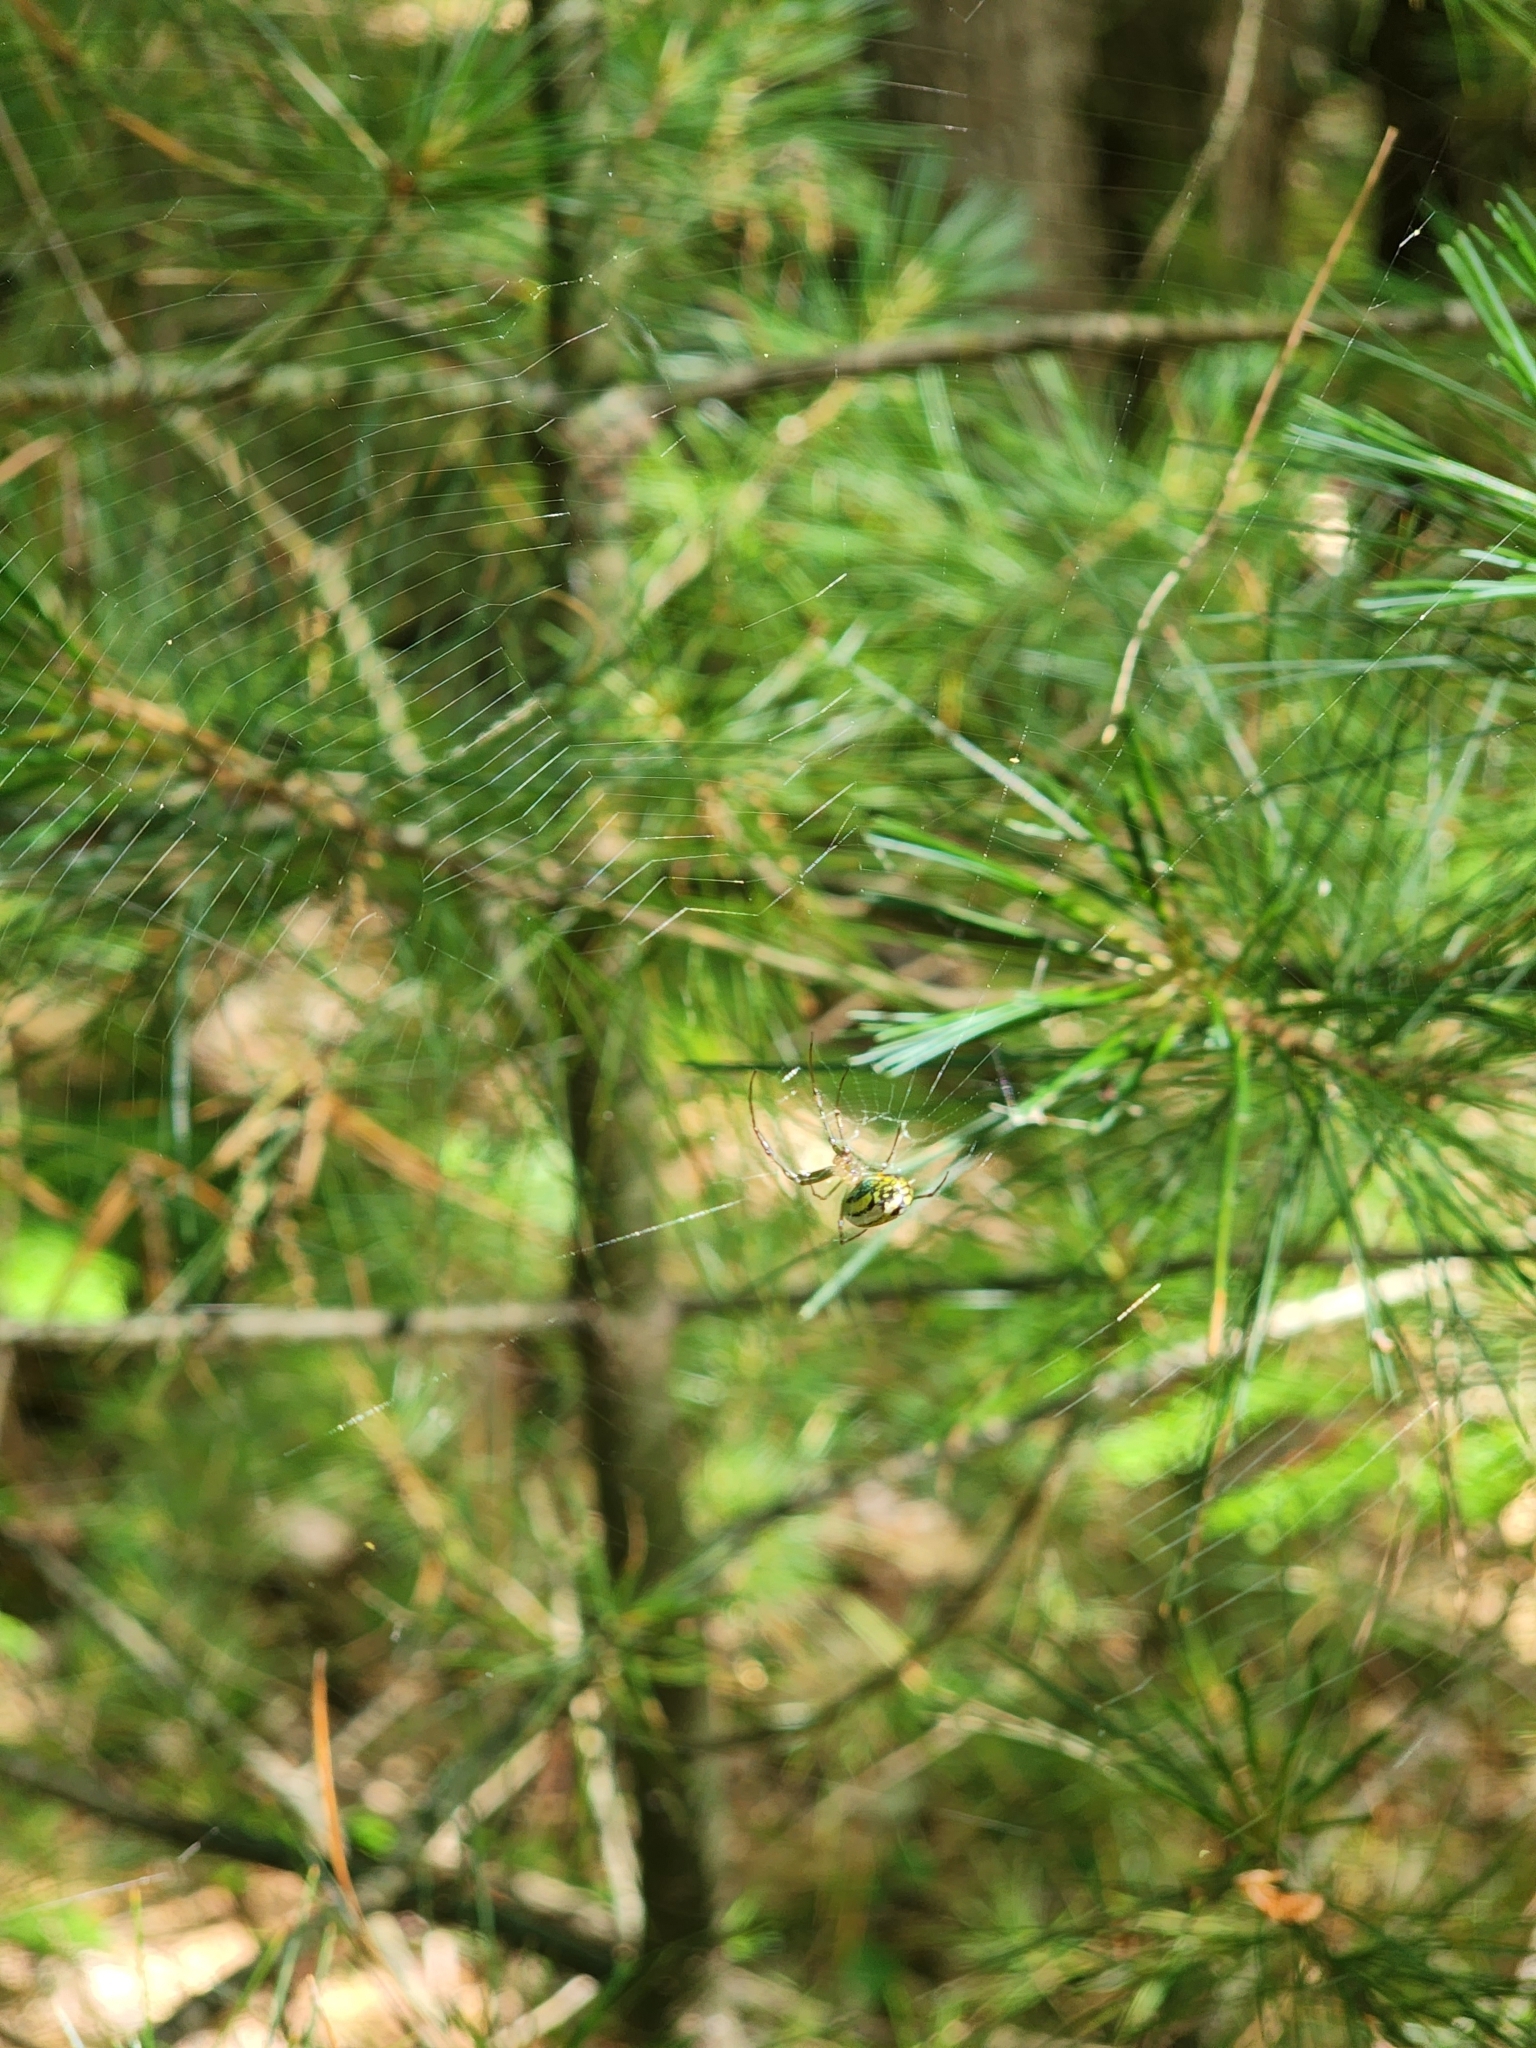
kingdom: Animalia
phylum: Arthropoda
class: Arachnida
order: Araneae
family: Tetragnathidae
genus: Leucauge
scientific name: Leucauge venusta
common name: Longjawed orb weavers
